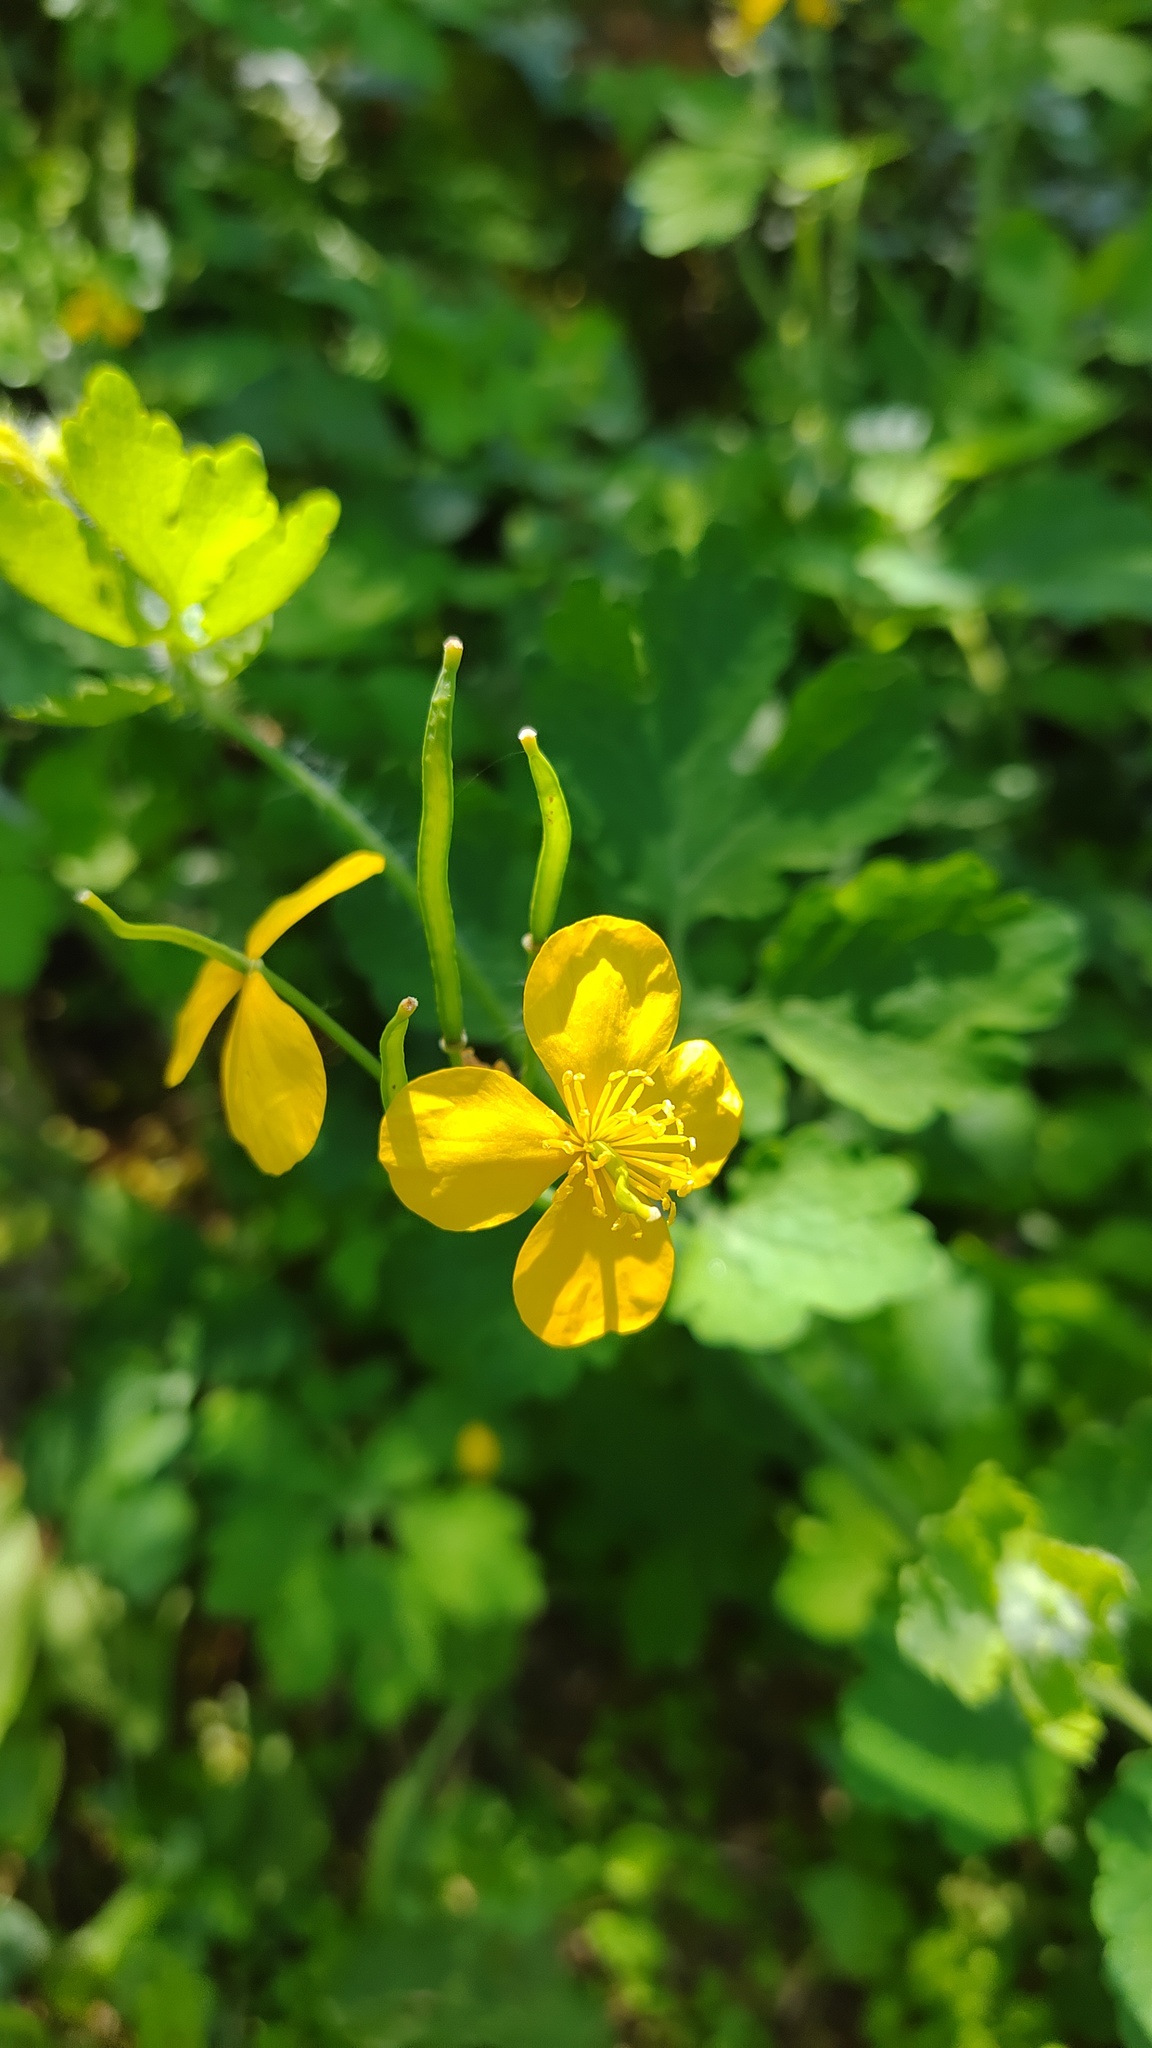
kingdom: Plantae
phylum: Tracheophyta
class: Magnoliopsida
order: Ranunculales
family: Papaveraceae
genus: Chelidonium
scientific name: Chelidonium majus
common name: Greater celandine
